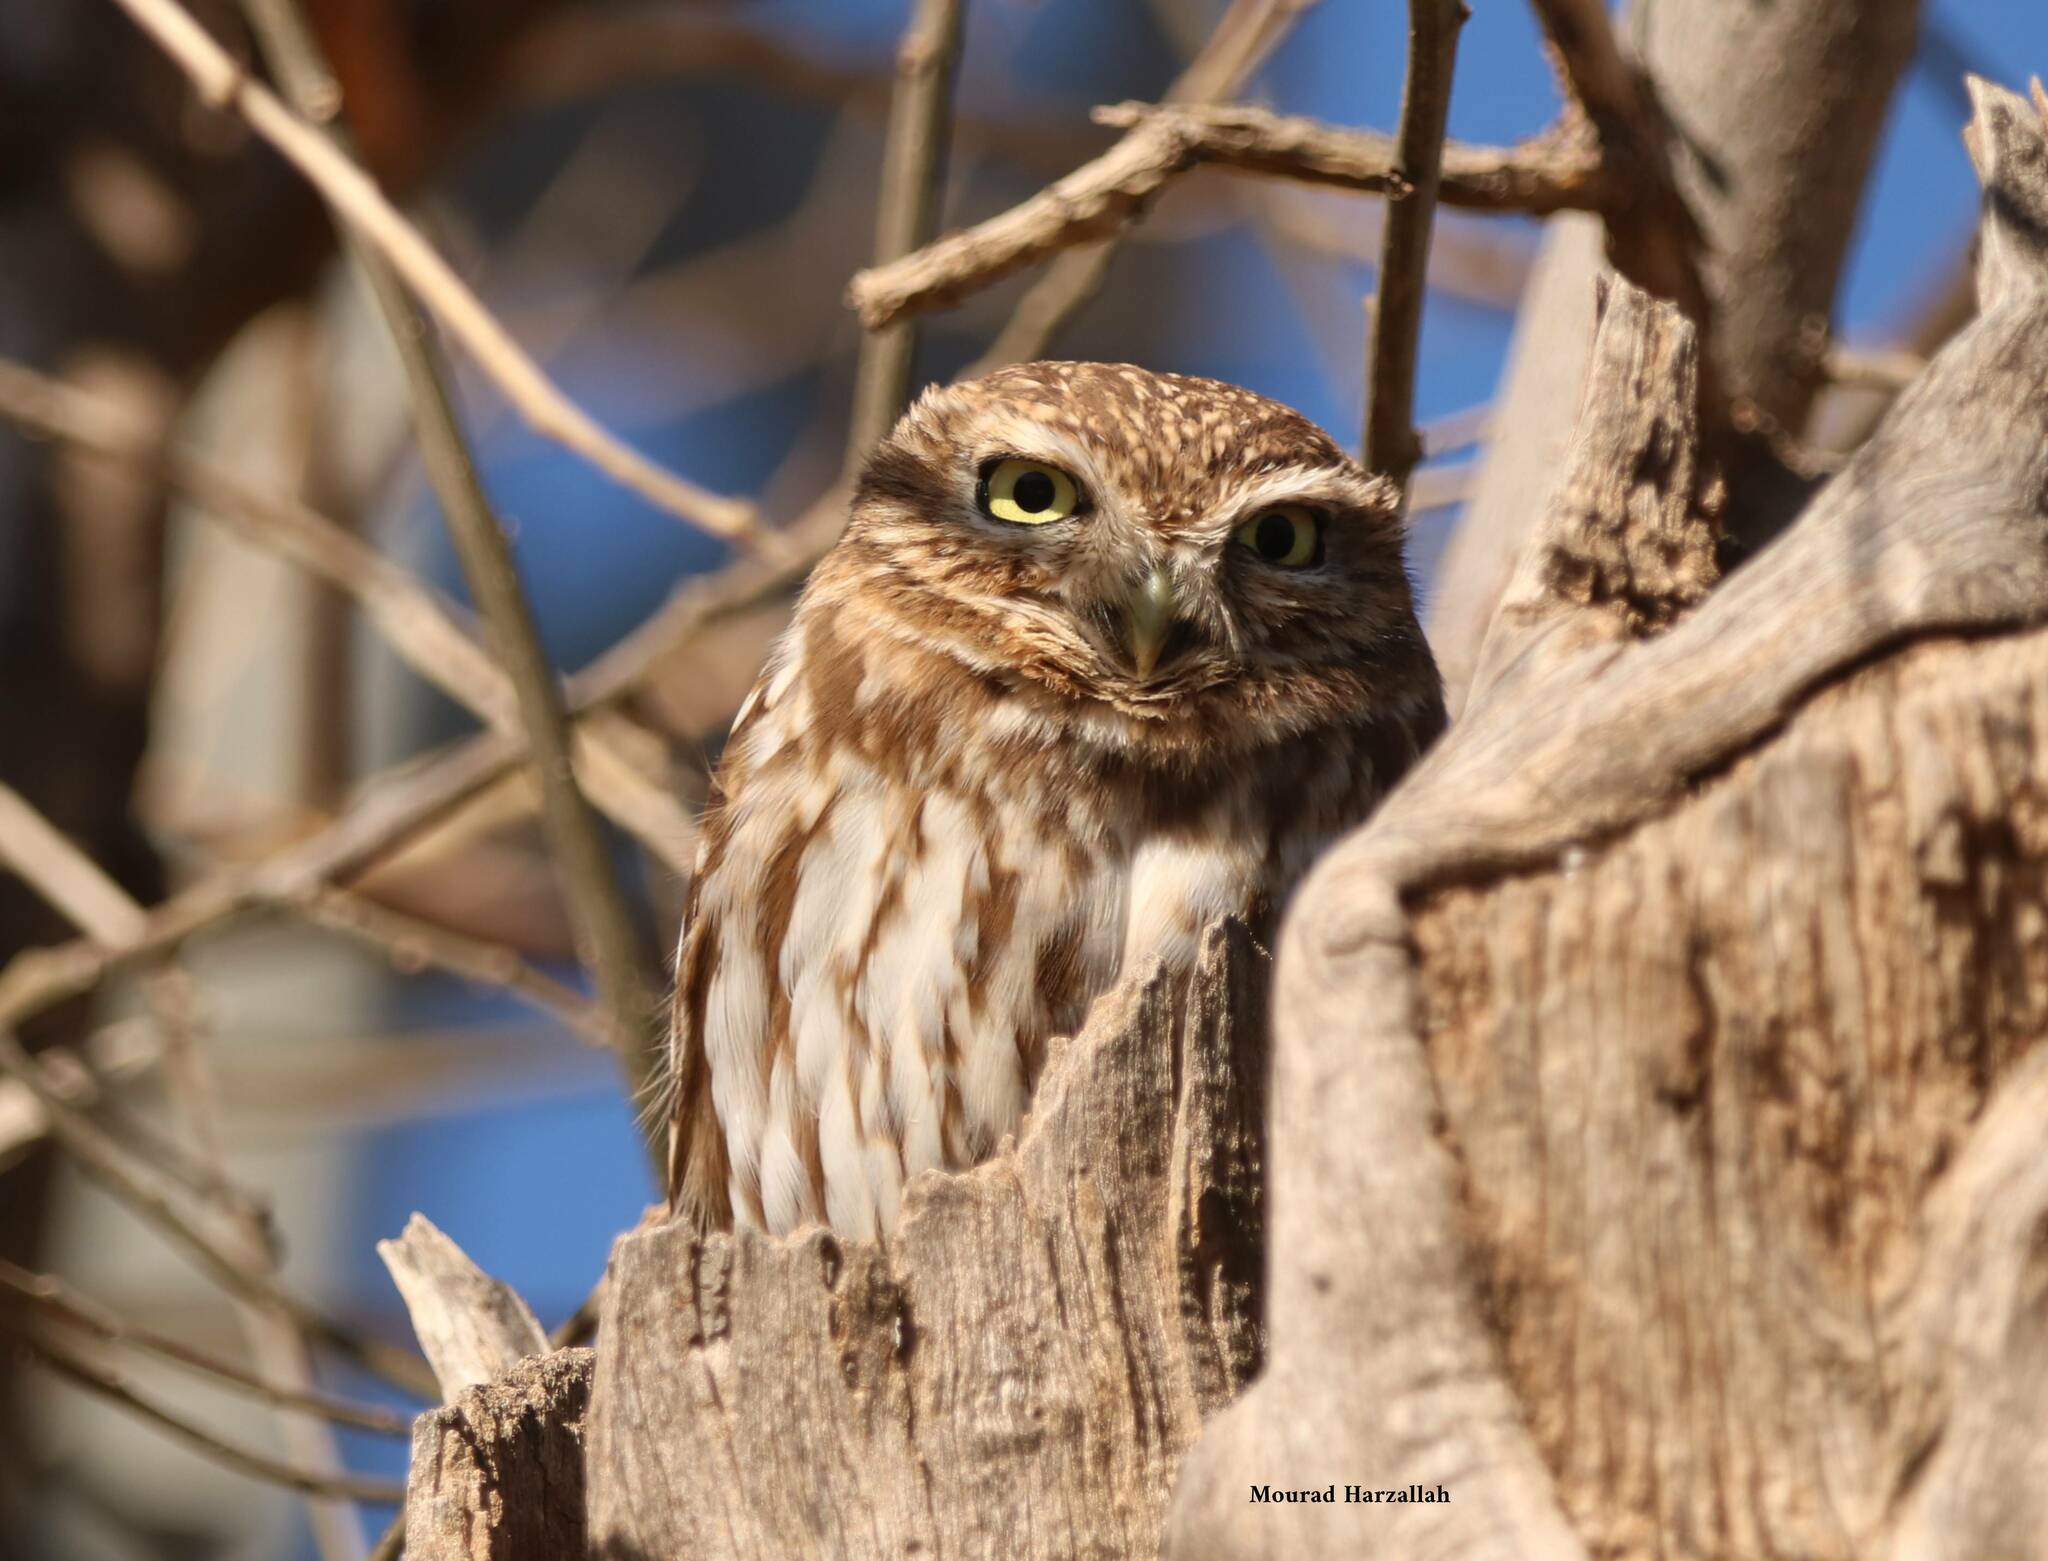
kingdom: Animalia
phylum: Chordata
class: Aves
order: Strigiformes
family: Strigidae
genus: Athene
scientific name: Athene noctua
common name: Little owl
